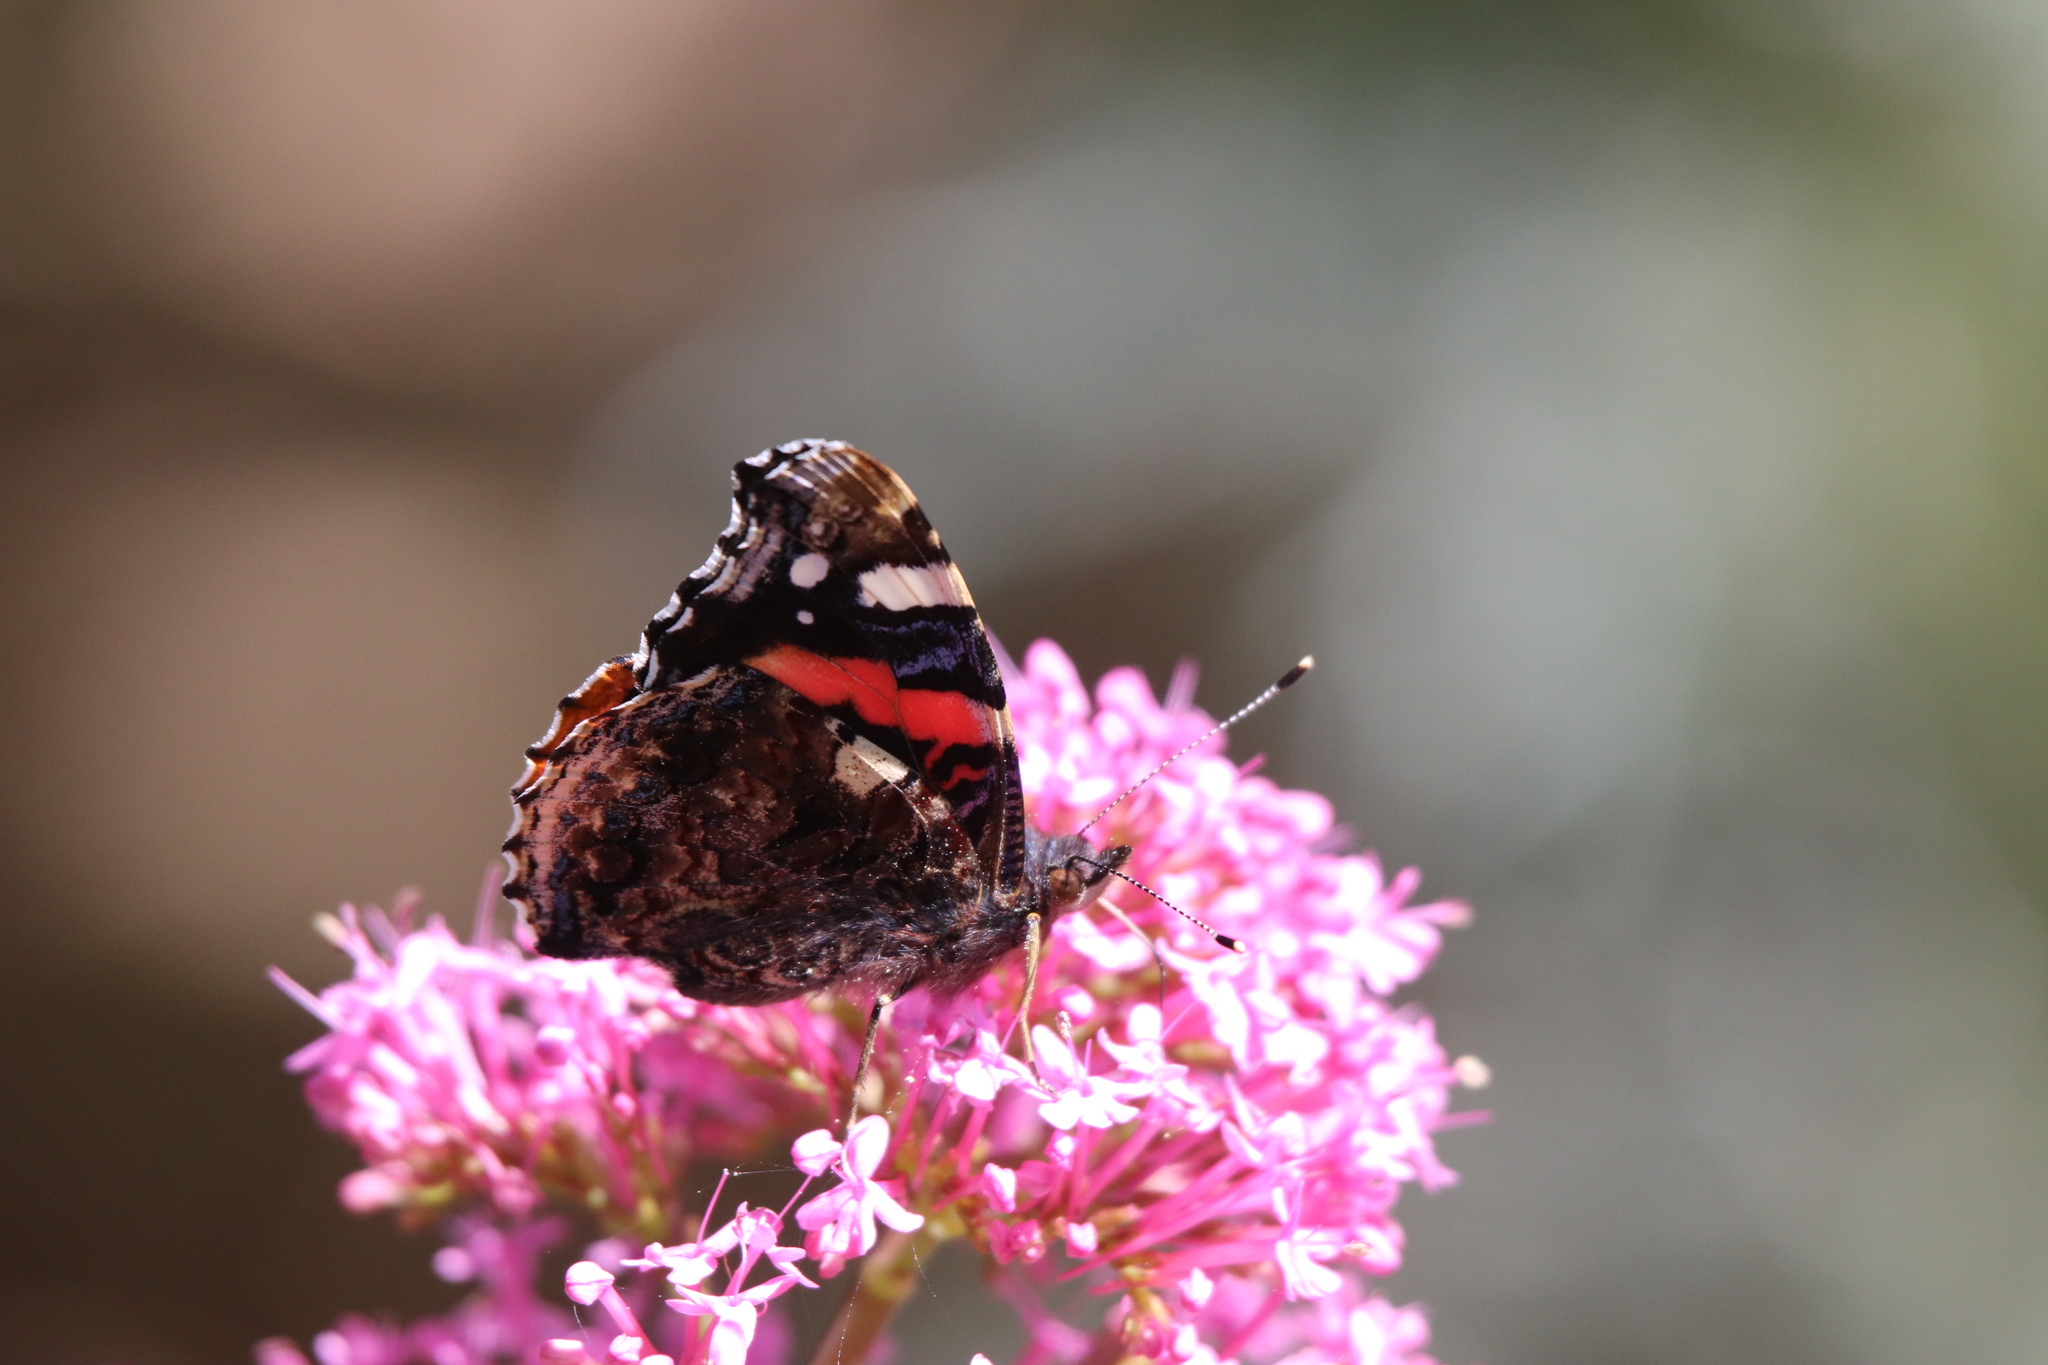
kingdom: Animalia
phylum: Arthropoda
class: Insecta
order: Lepidoptera
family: Nymphalidae
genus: Vanessa
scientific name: Vanessa atalanta
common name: Red admiral
